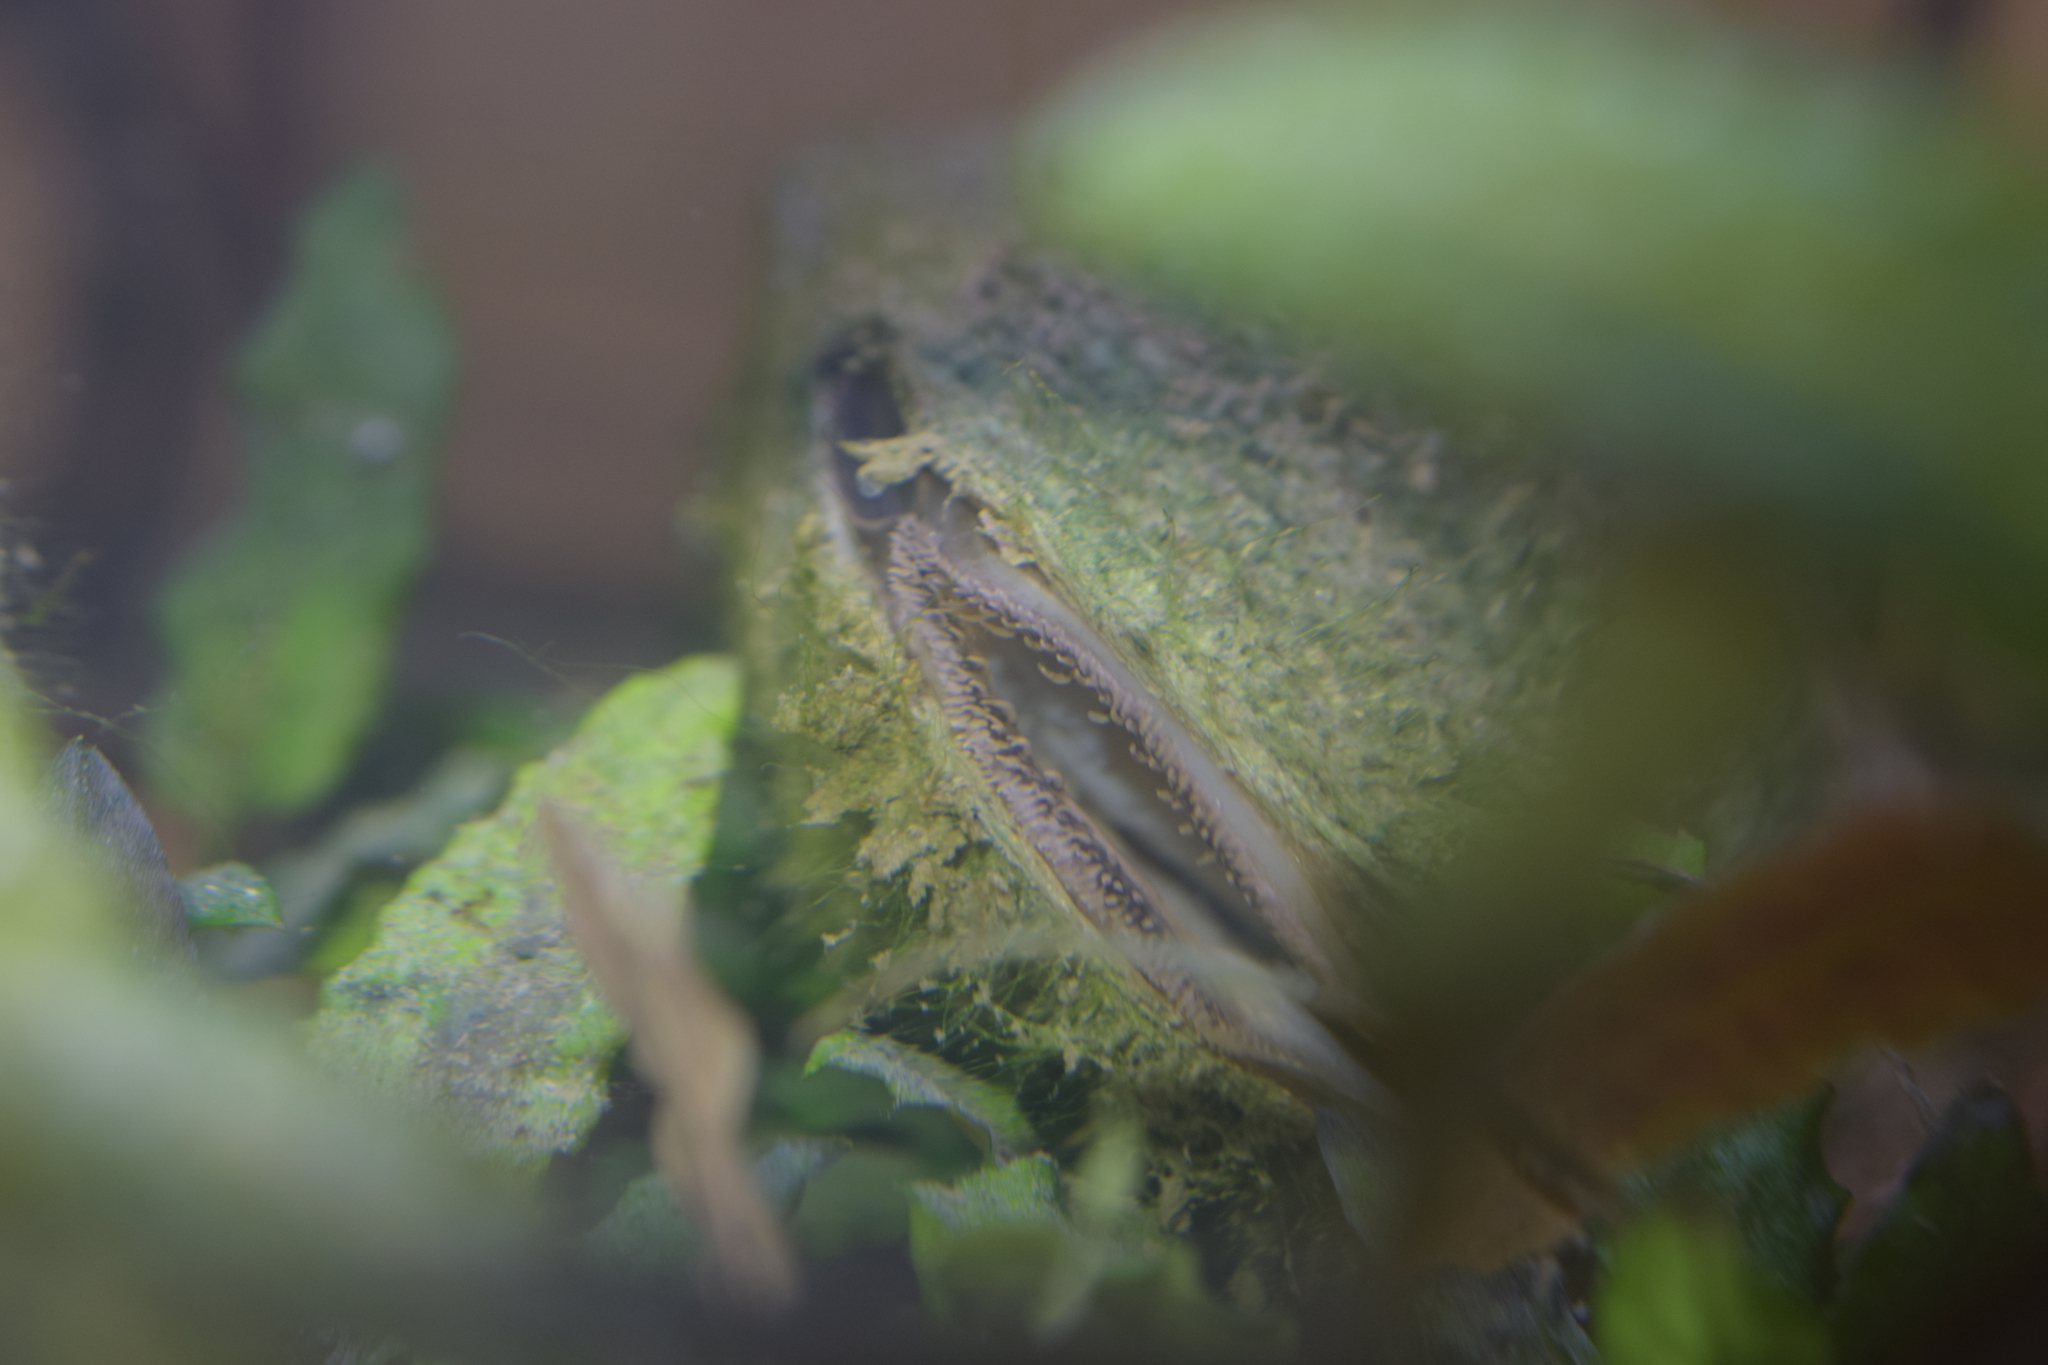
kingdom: Animalia
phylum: Mollusca
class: Bivalvia
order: Unionida
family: Unionidae
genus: Anodonta
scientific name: Anodonta anatina
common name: Duck mussel
